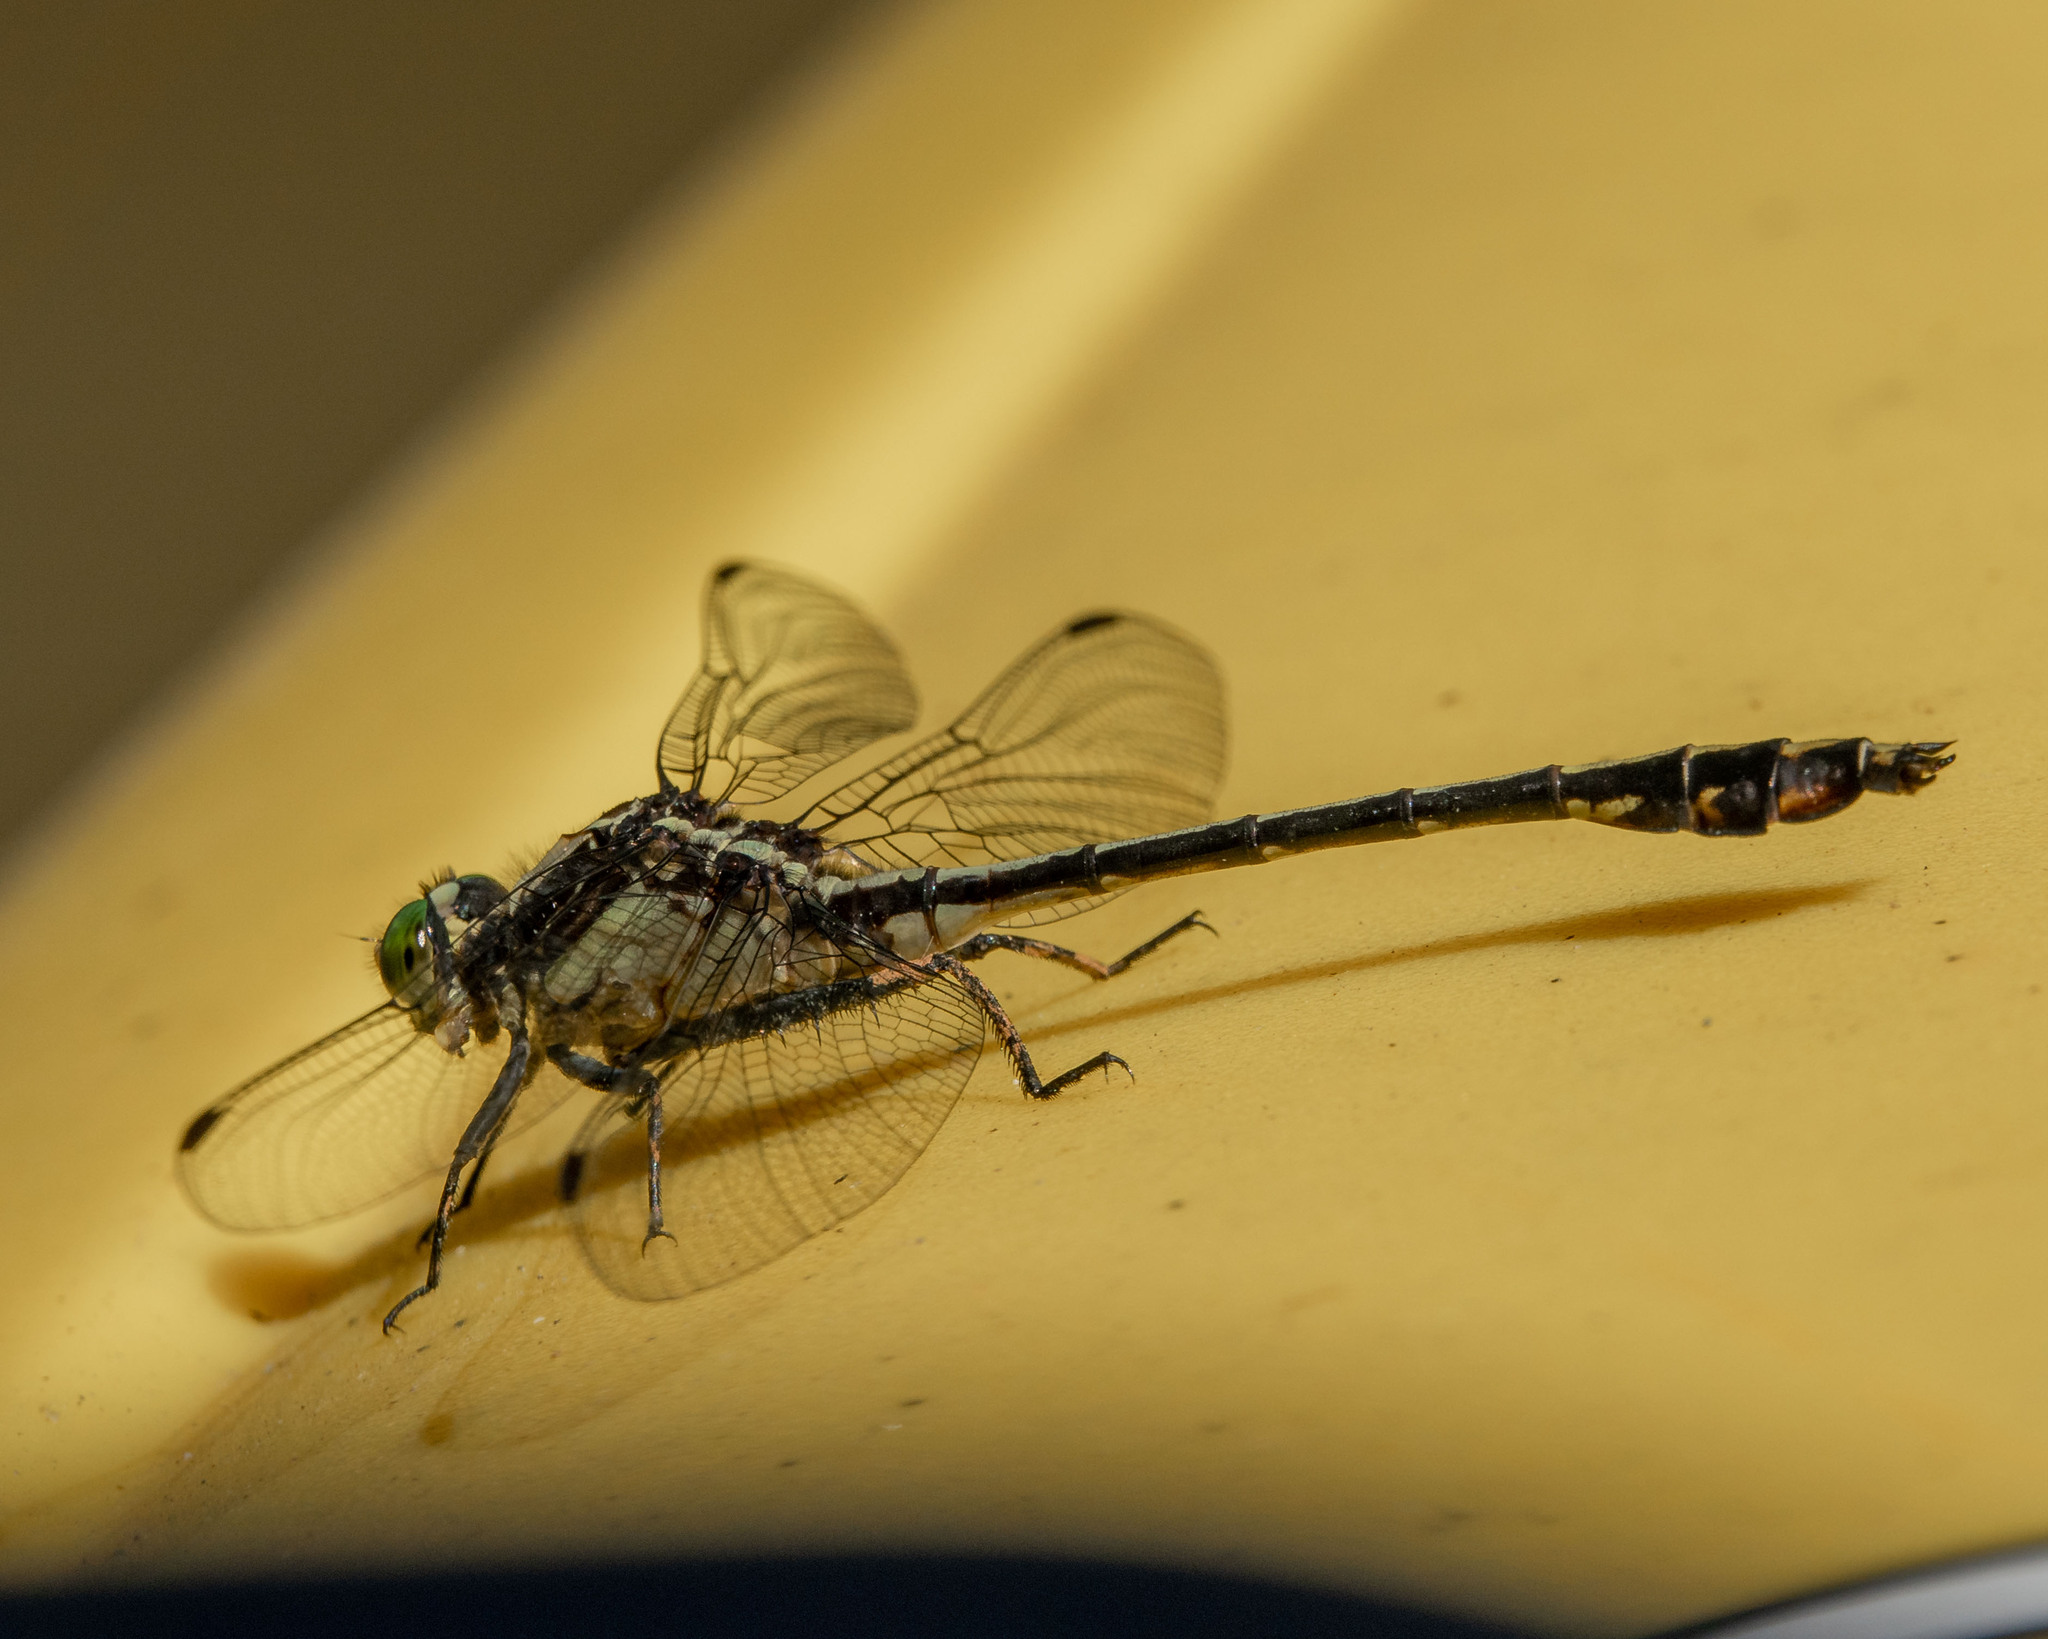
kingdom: Animalia
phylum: Arthropoda
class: Insecta
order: Odonata
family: Gomphidae
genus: Dromogomphus
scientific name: Dromogomphus spinosus
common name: Black-shouldered spinyleg
